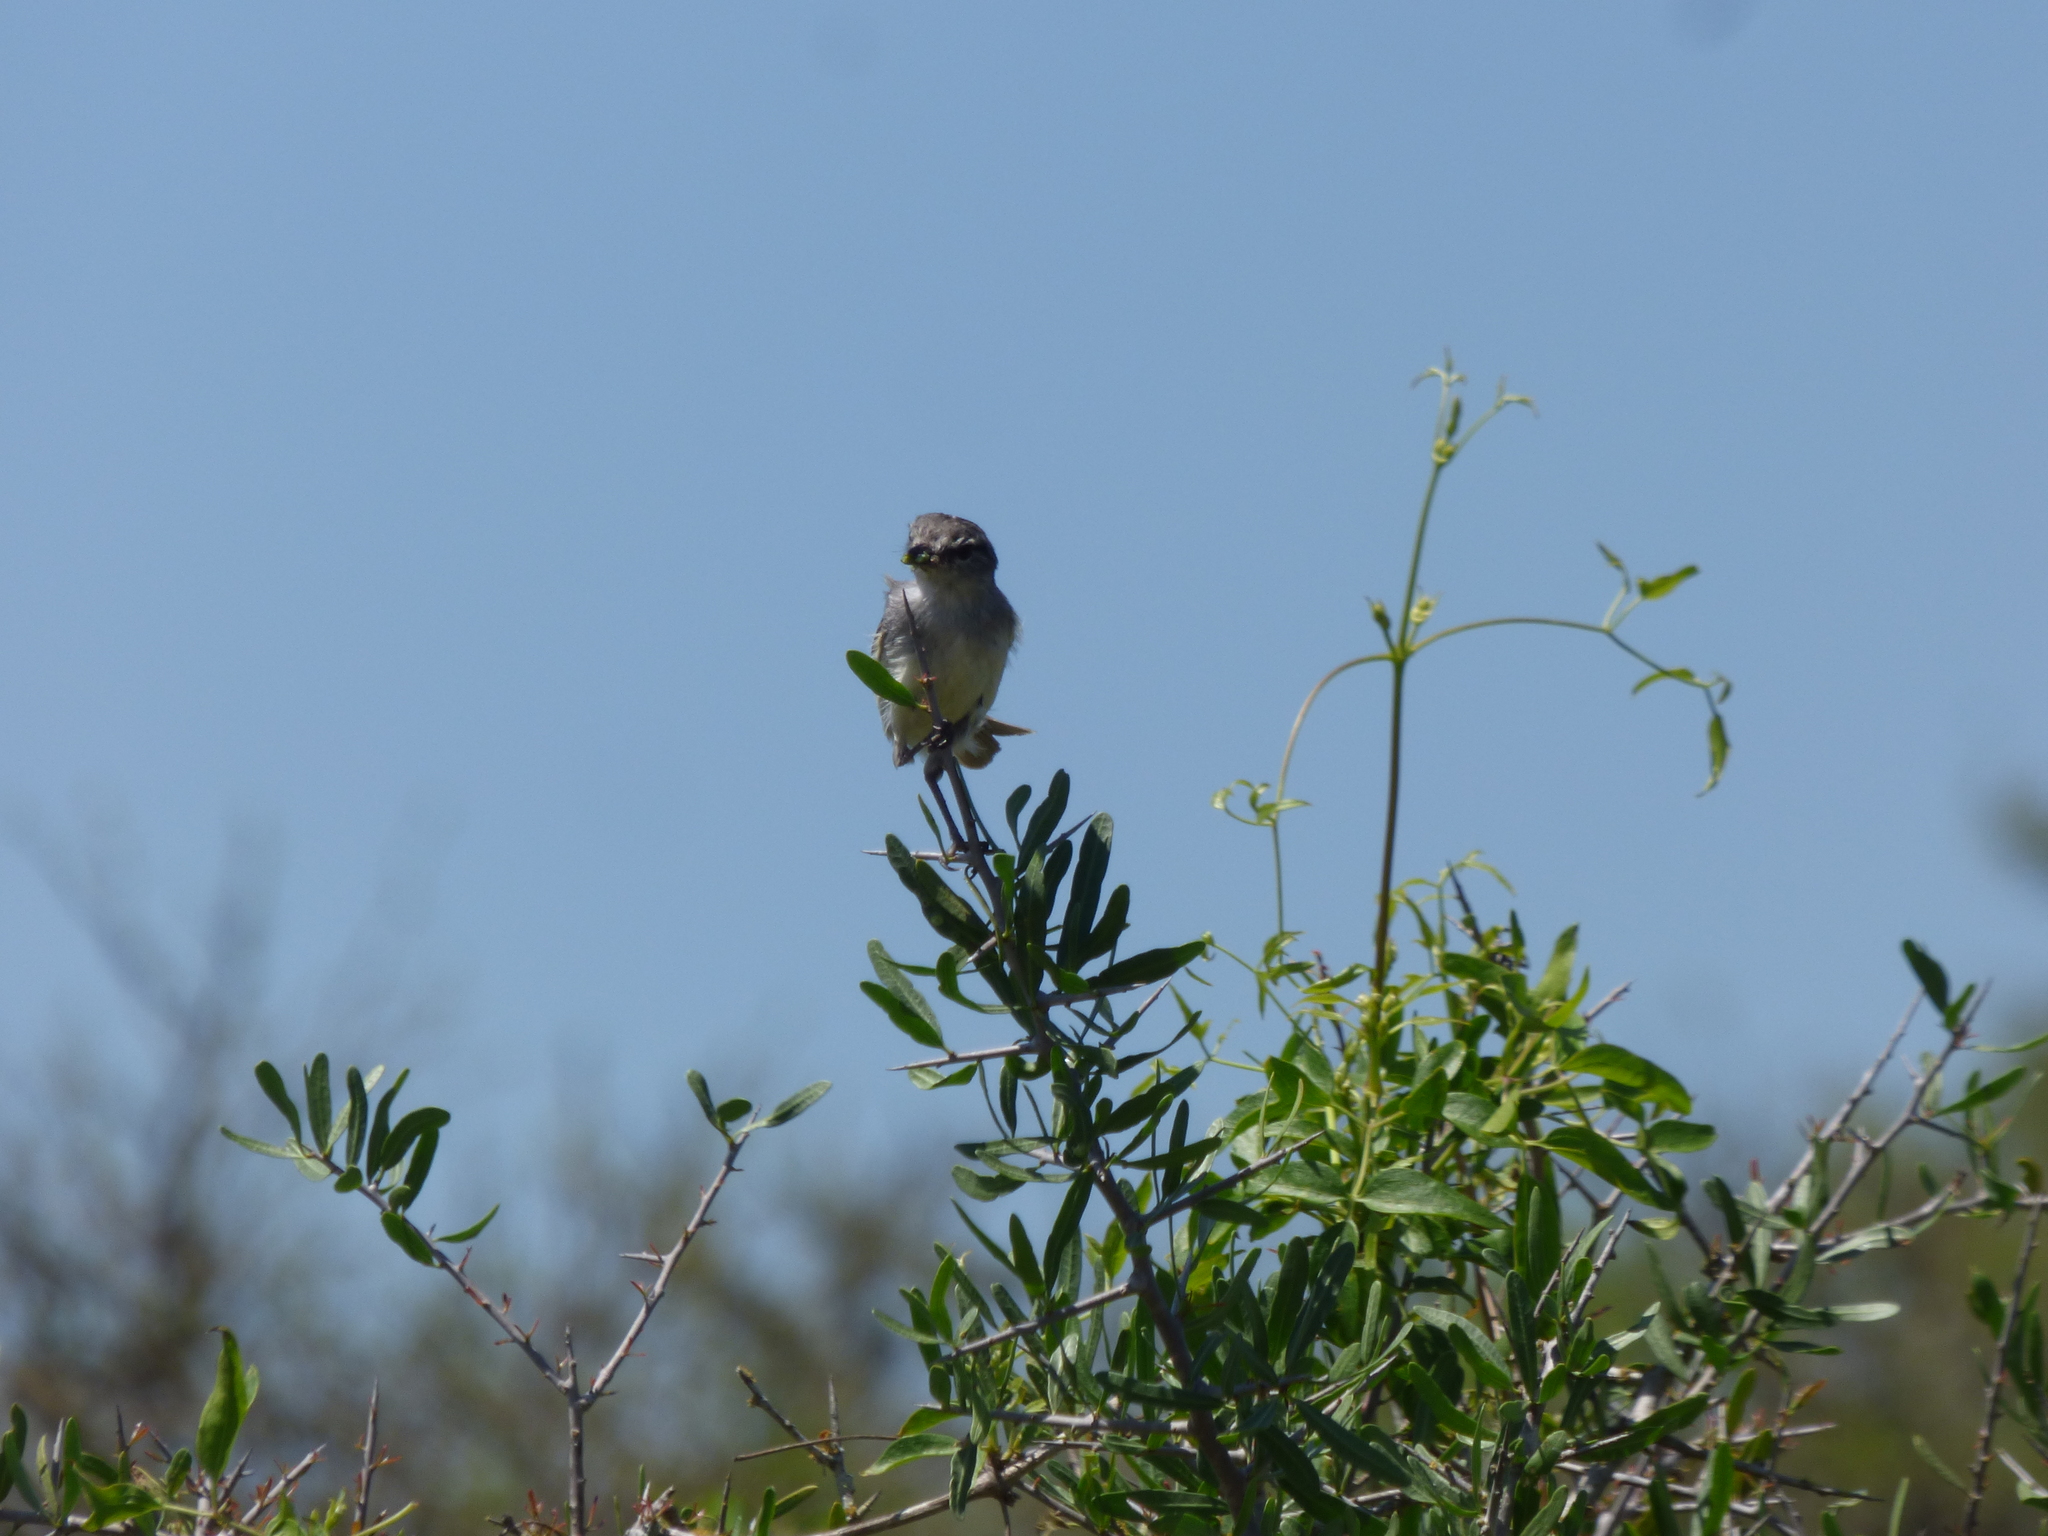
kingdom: Animalia
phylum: Chordata
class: Aves
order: Passeriformes
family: Tyrannidae
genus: Serpophaga
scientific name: Serpophaga subcristata
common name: White-crested tyrannulet
